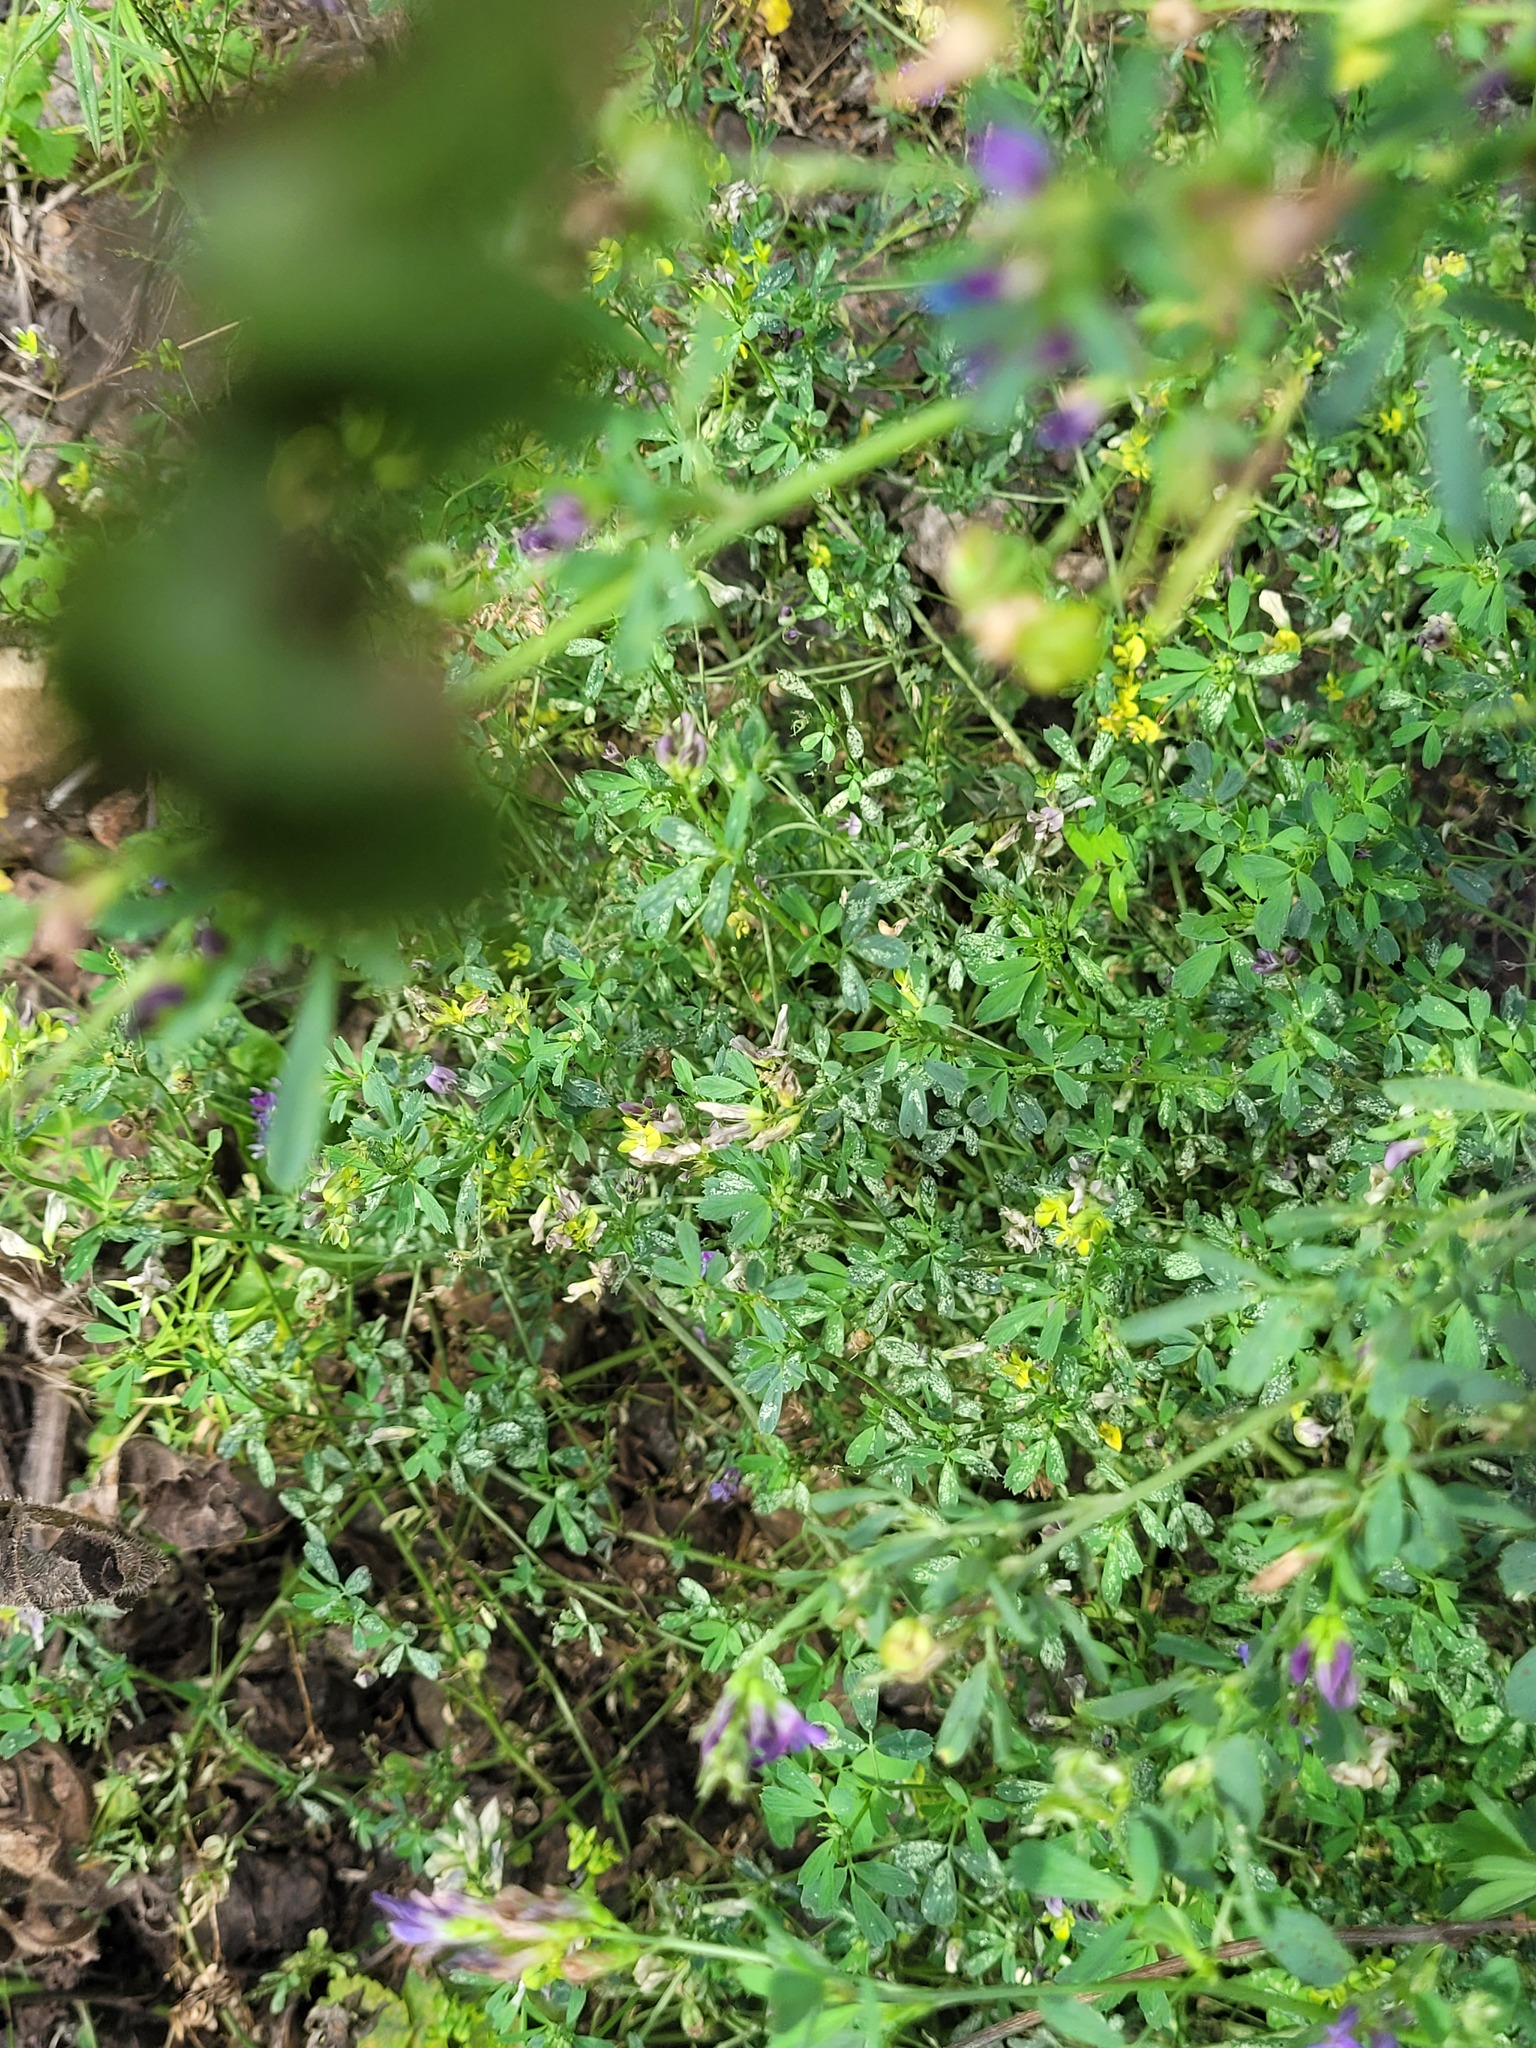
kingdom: Plantae
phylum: Tracheophyta
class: Magnoliopsida
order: Fabales
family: Fabaceae
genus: Medicago
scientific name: Medicago varia
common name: Sand lucerne
